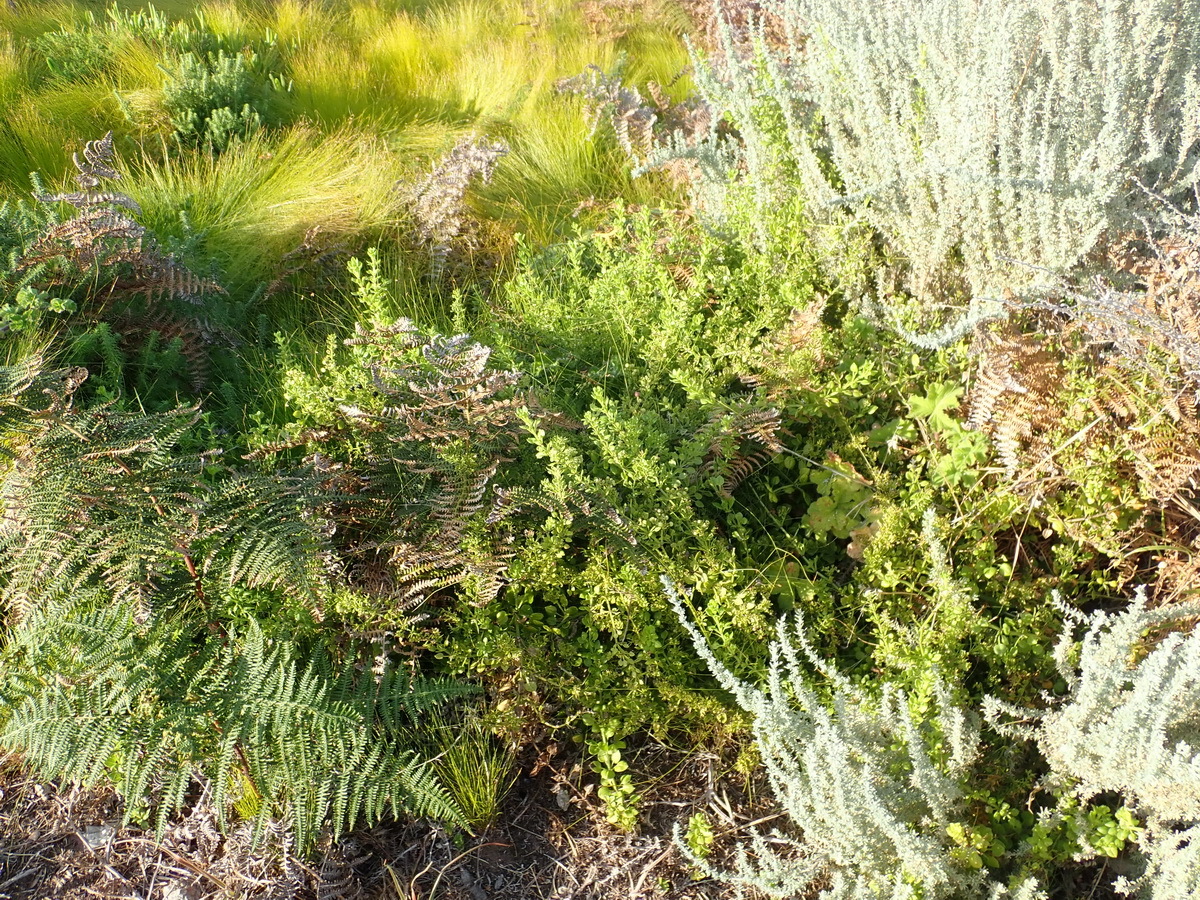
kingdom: Plantae
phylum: Tracheophyta
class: Magnoliopsida
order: Gentianales
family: Rubiaceae
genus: Rubia
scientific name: Rubia petiolaris
